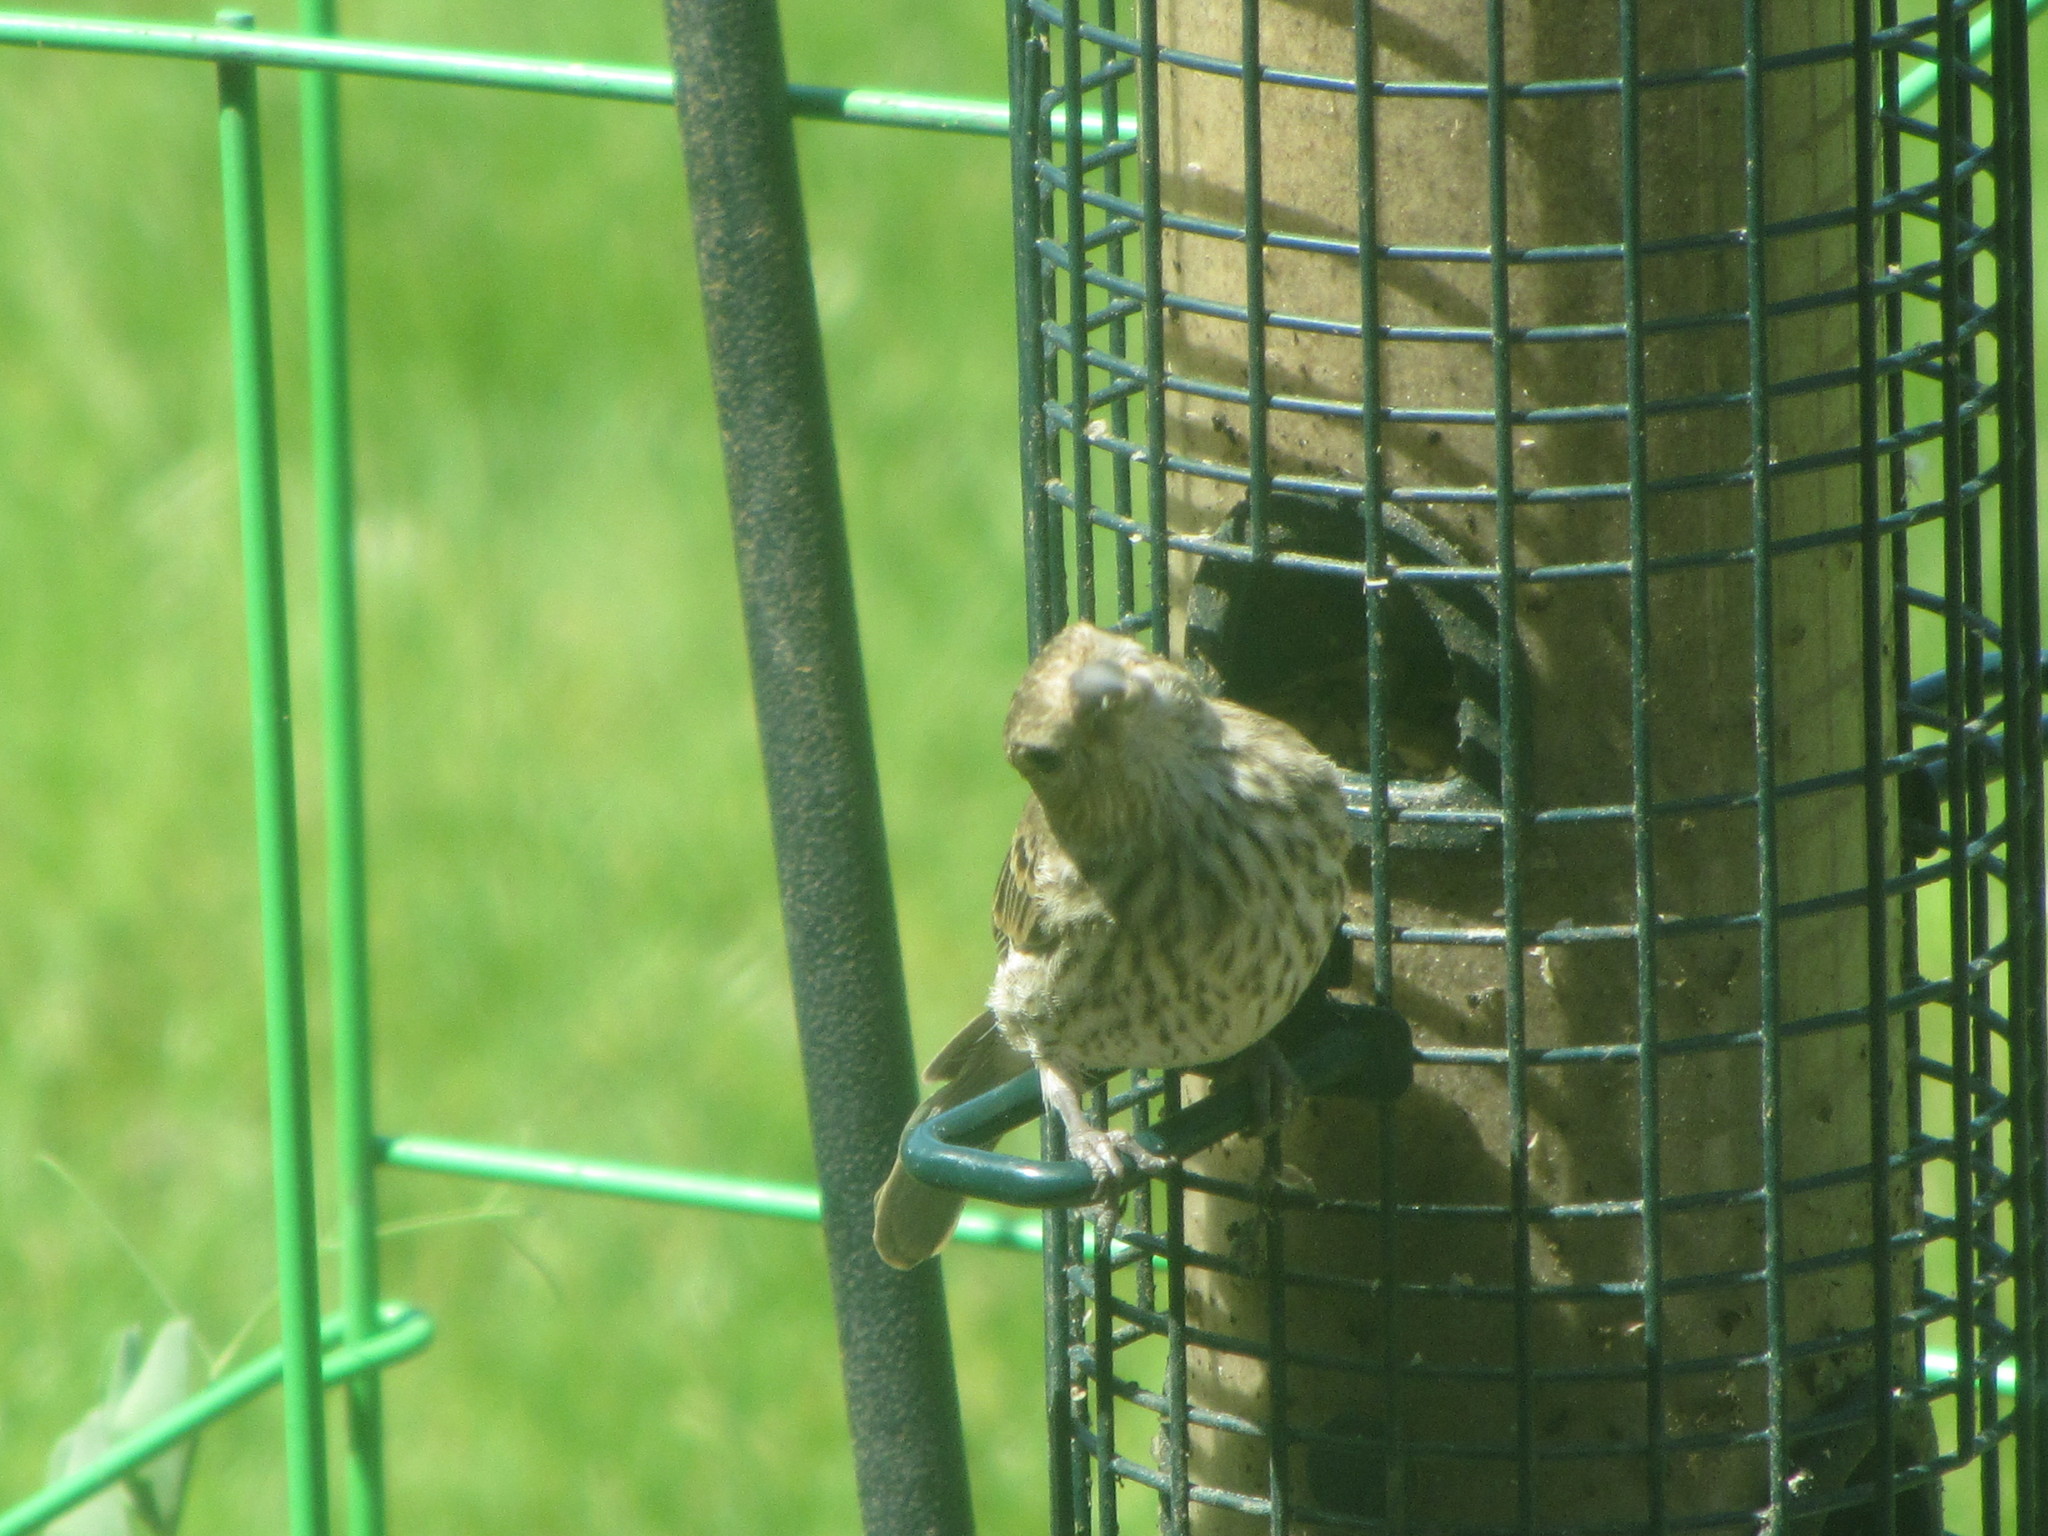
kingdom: Animalia
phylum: Chordata
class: Aves
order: Passeriformes
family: Fringillidae
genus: Haemorhous
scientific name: Haemorhous mexicanus
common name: House finch
